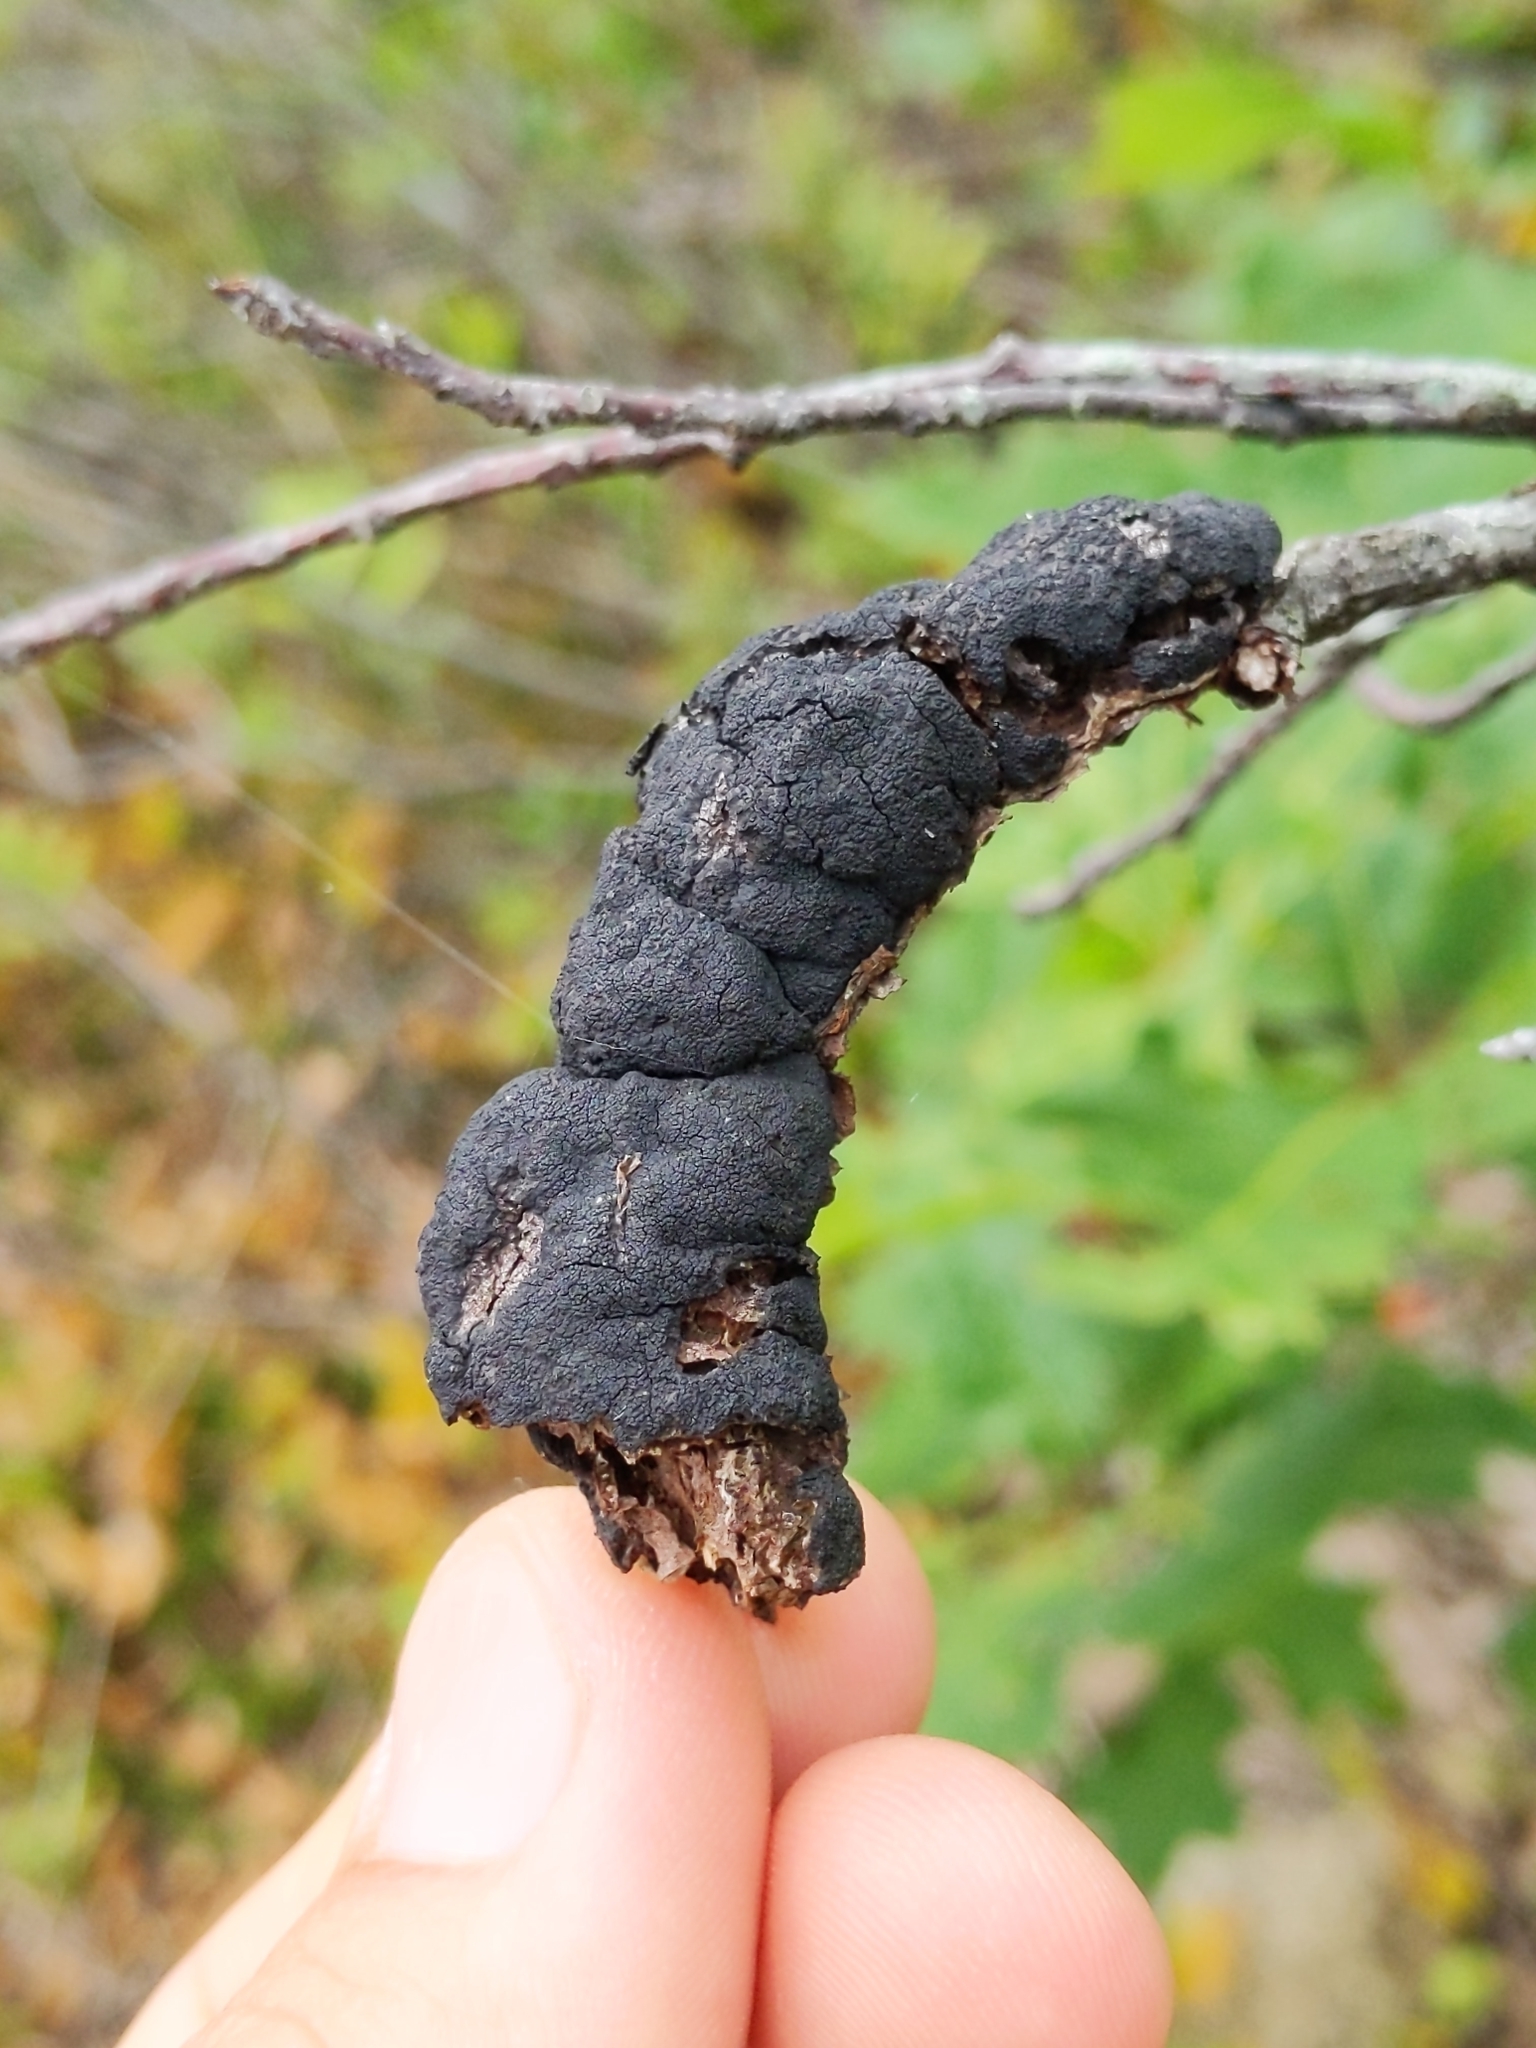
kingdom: Fungi
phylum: Ascomycota
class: Dothideomycetes
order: Venturiales
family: Venturiaceae
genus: Apiosporina
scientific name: Apiosporina morbosa
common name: Black knot
